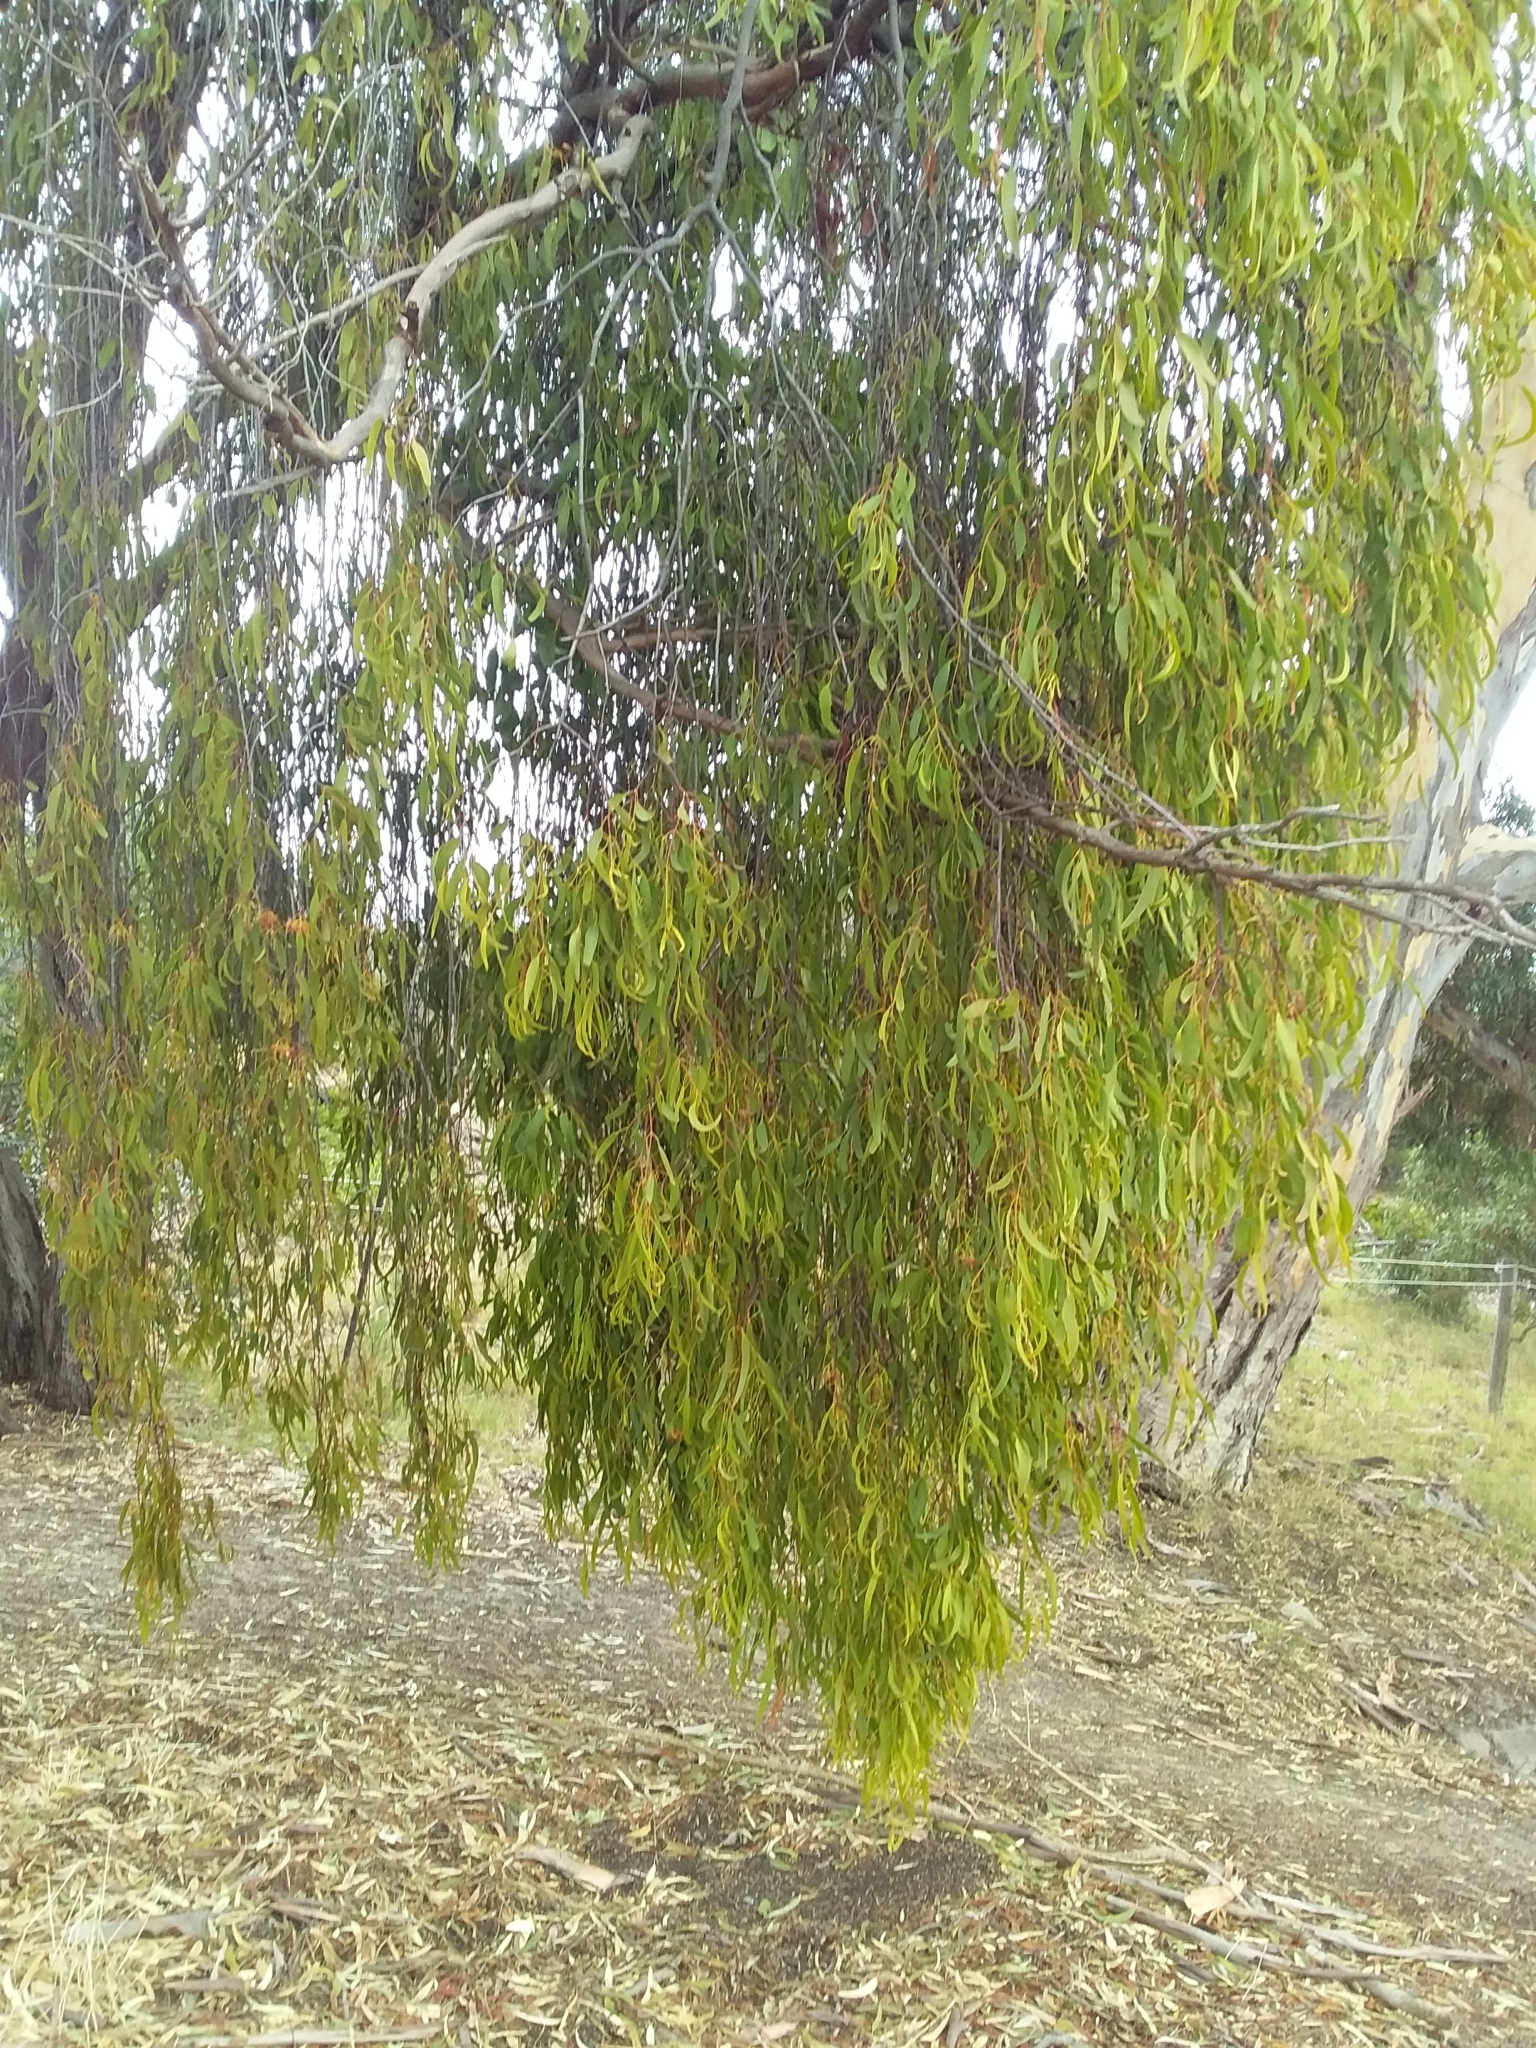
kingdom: Plantae
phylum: Tracheophyta
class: Magnoliopsida
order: Santalales
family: Loranthaceae
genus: Amyema
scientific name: Amyema miquelii
